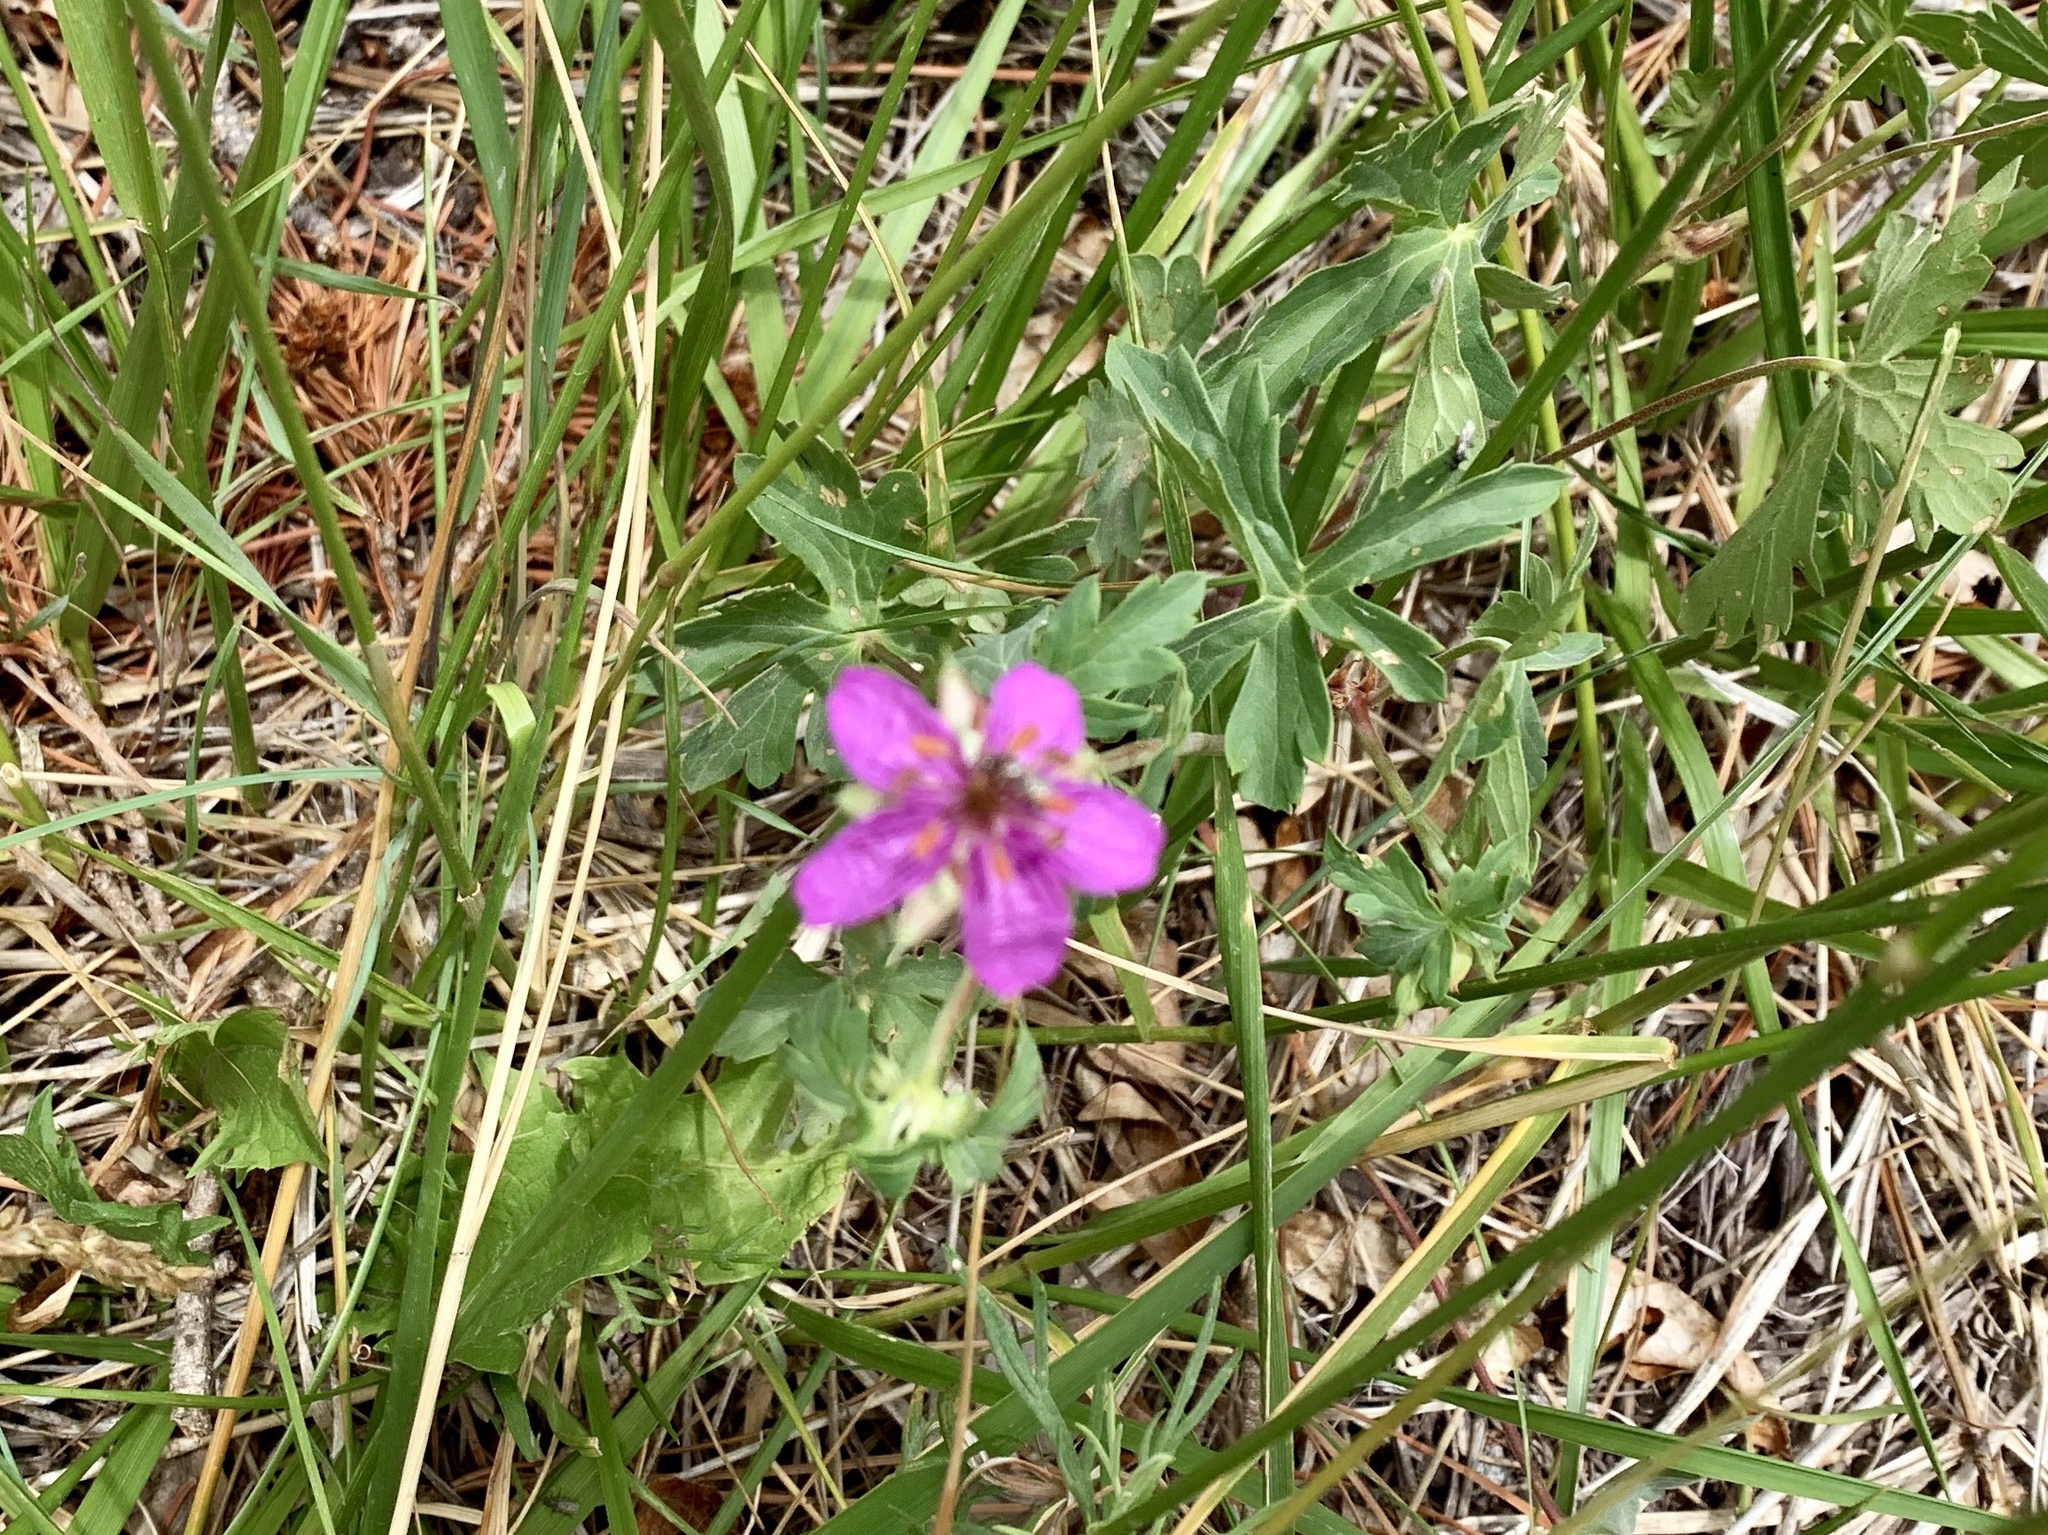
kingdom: Plantae
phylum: Tracheophyta
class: Magnoliopsida
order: Geraniales
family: Geraniaceae
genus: Geranium
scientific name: Geranium caespitosum
